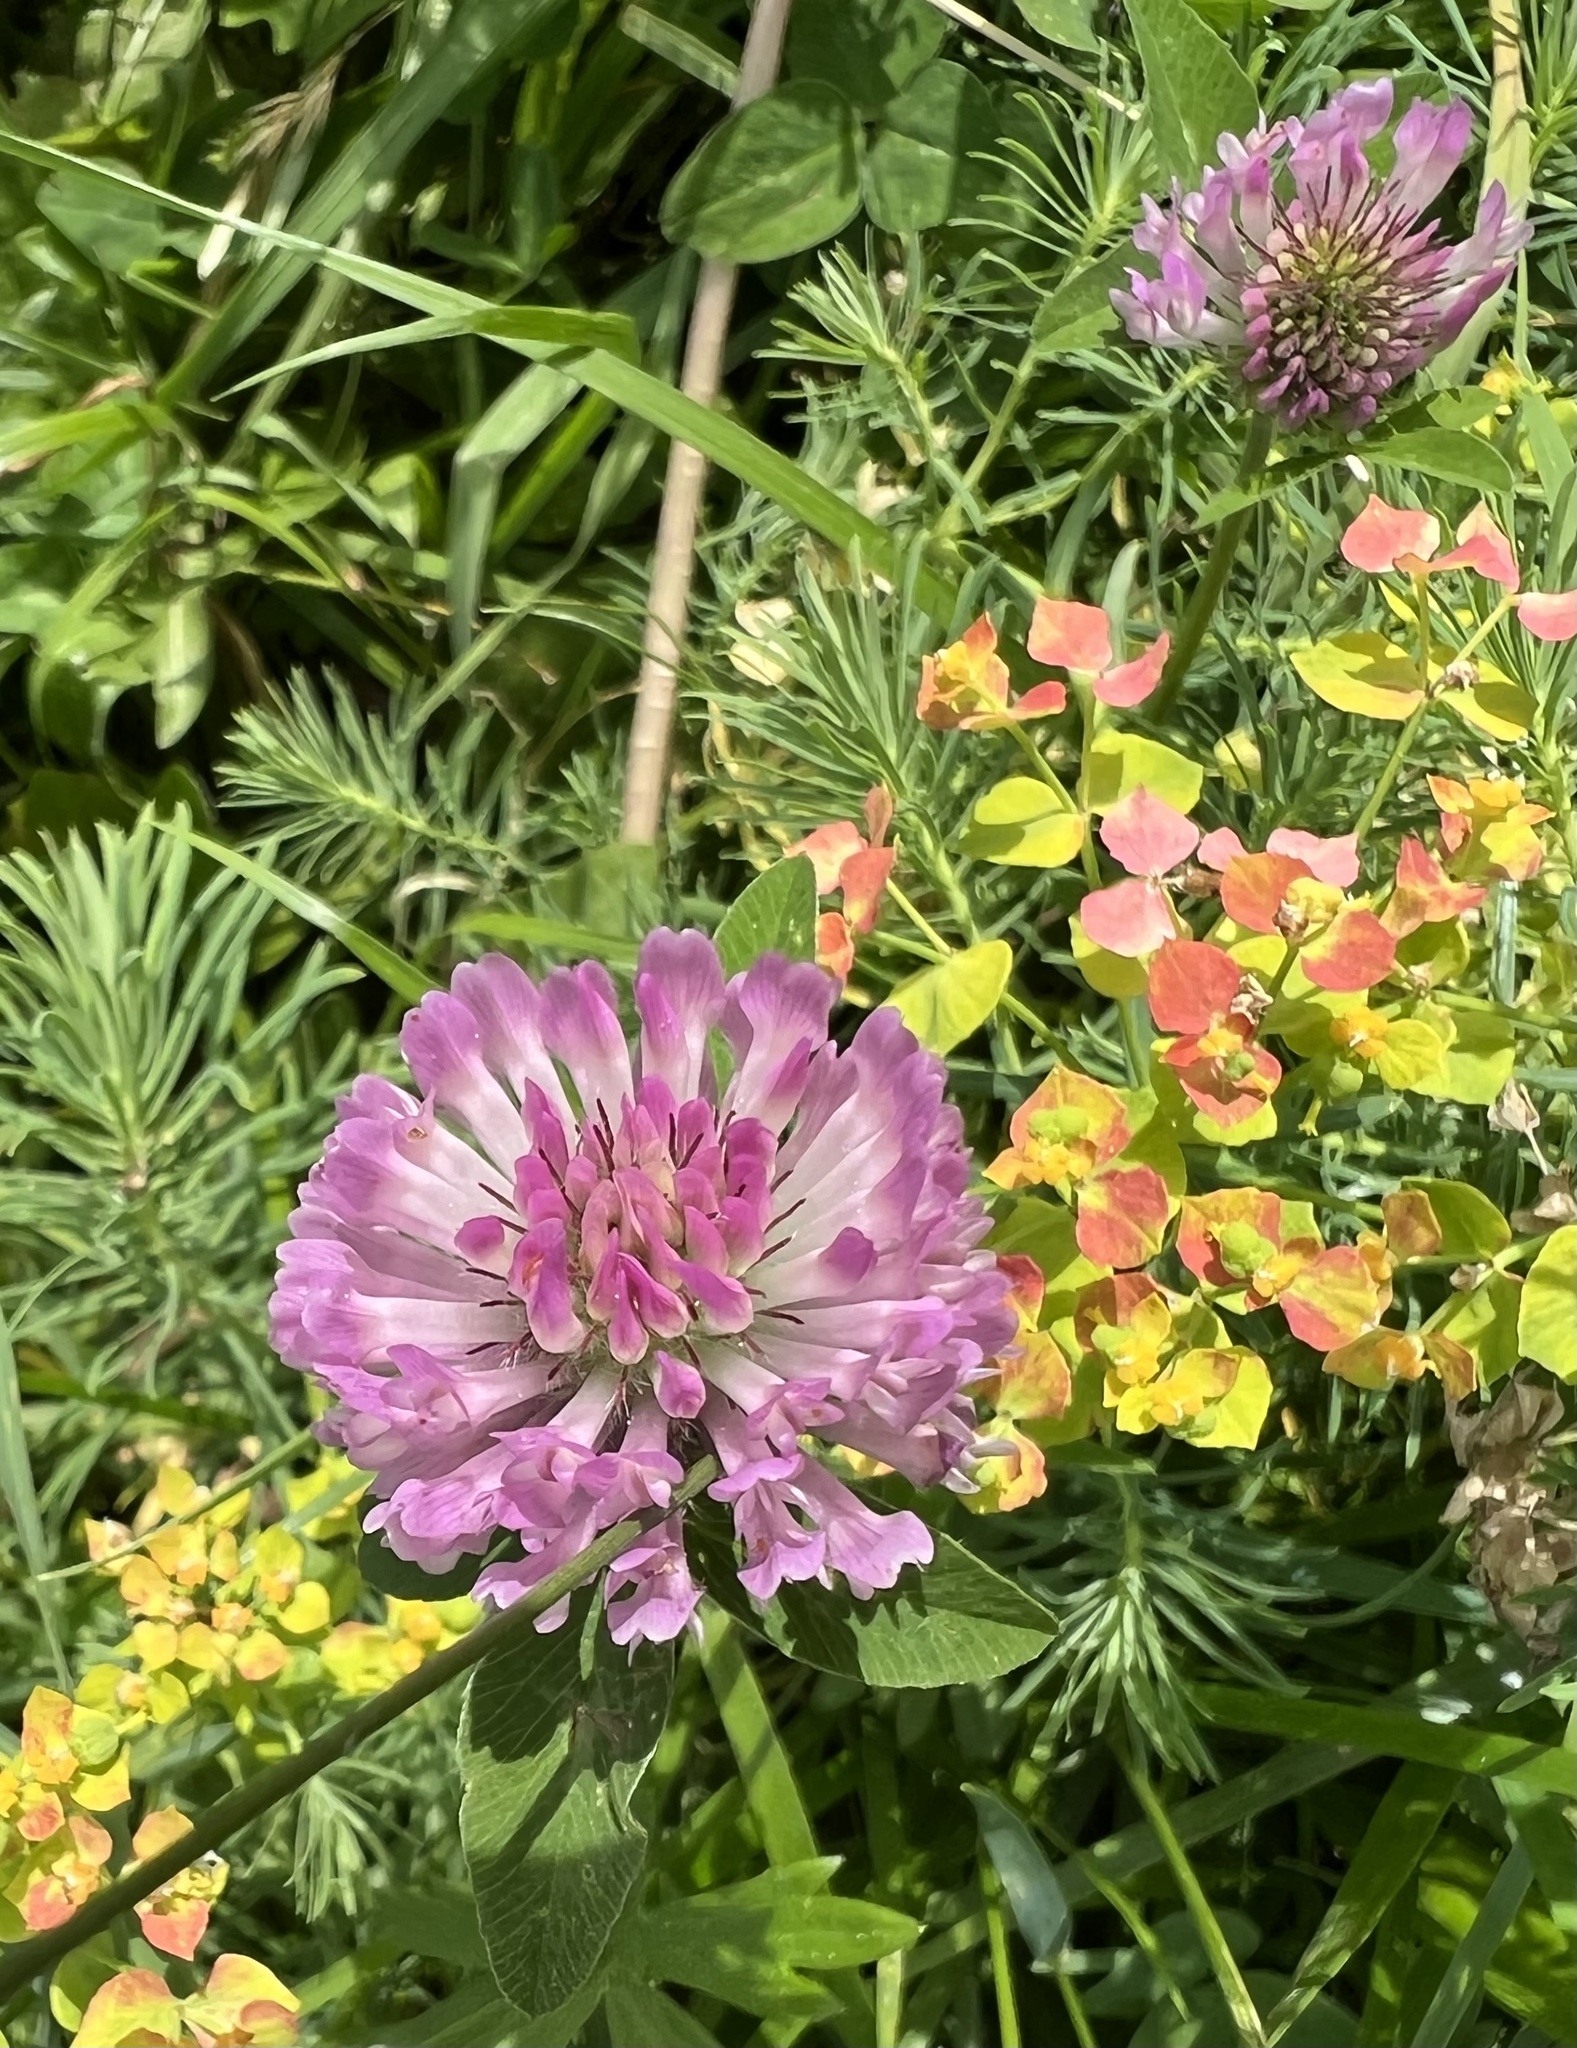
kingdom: Plantae
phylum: Tracheophyta
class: Magnoliopsida
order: Fabales
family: Fabaceae
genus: Trifolium
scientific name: Trifolium pratense
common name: Red clover
